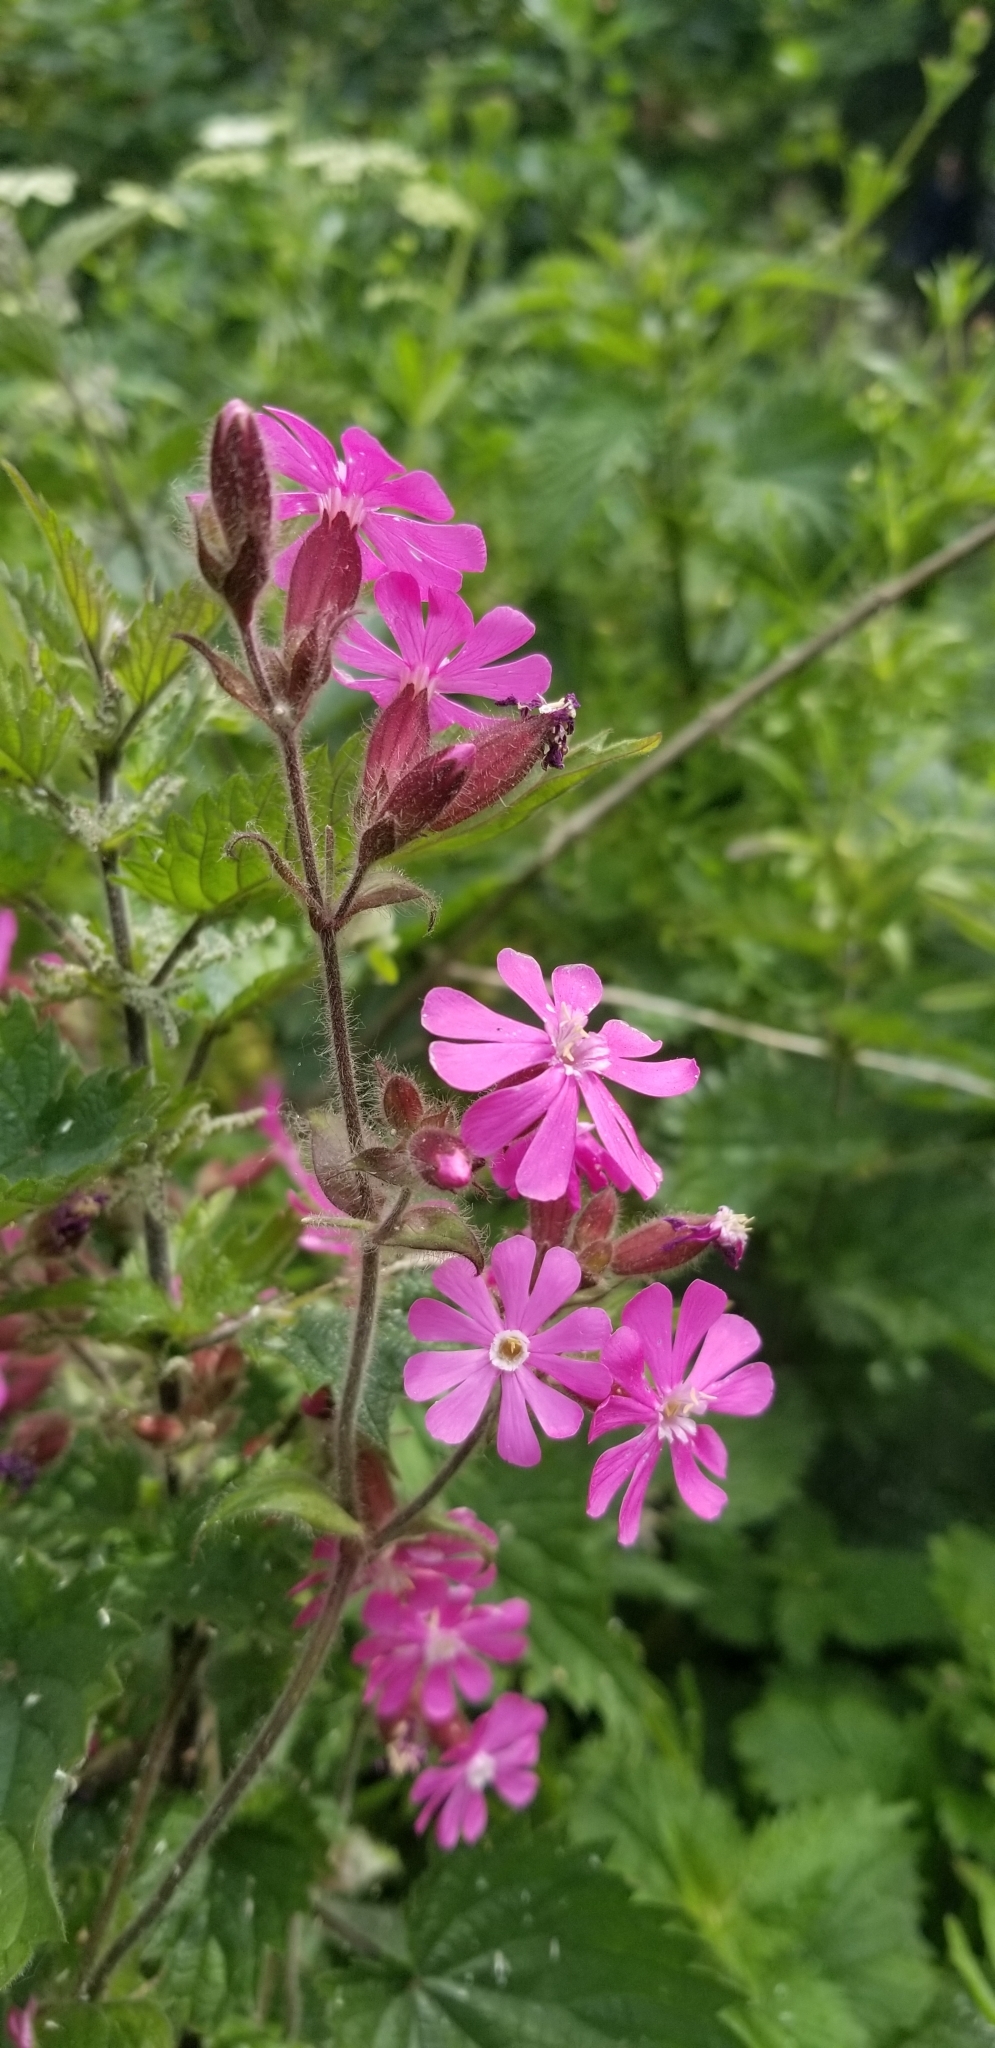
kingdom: Plantae
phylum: Tracheophyta
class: Magnoliopsida
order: Caryophyllales
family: Caryophyllaceae
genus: Silene
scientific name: Silene dioica
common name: Red campion
